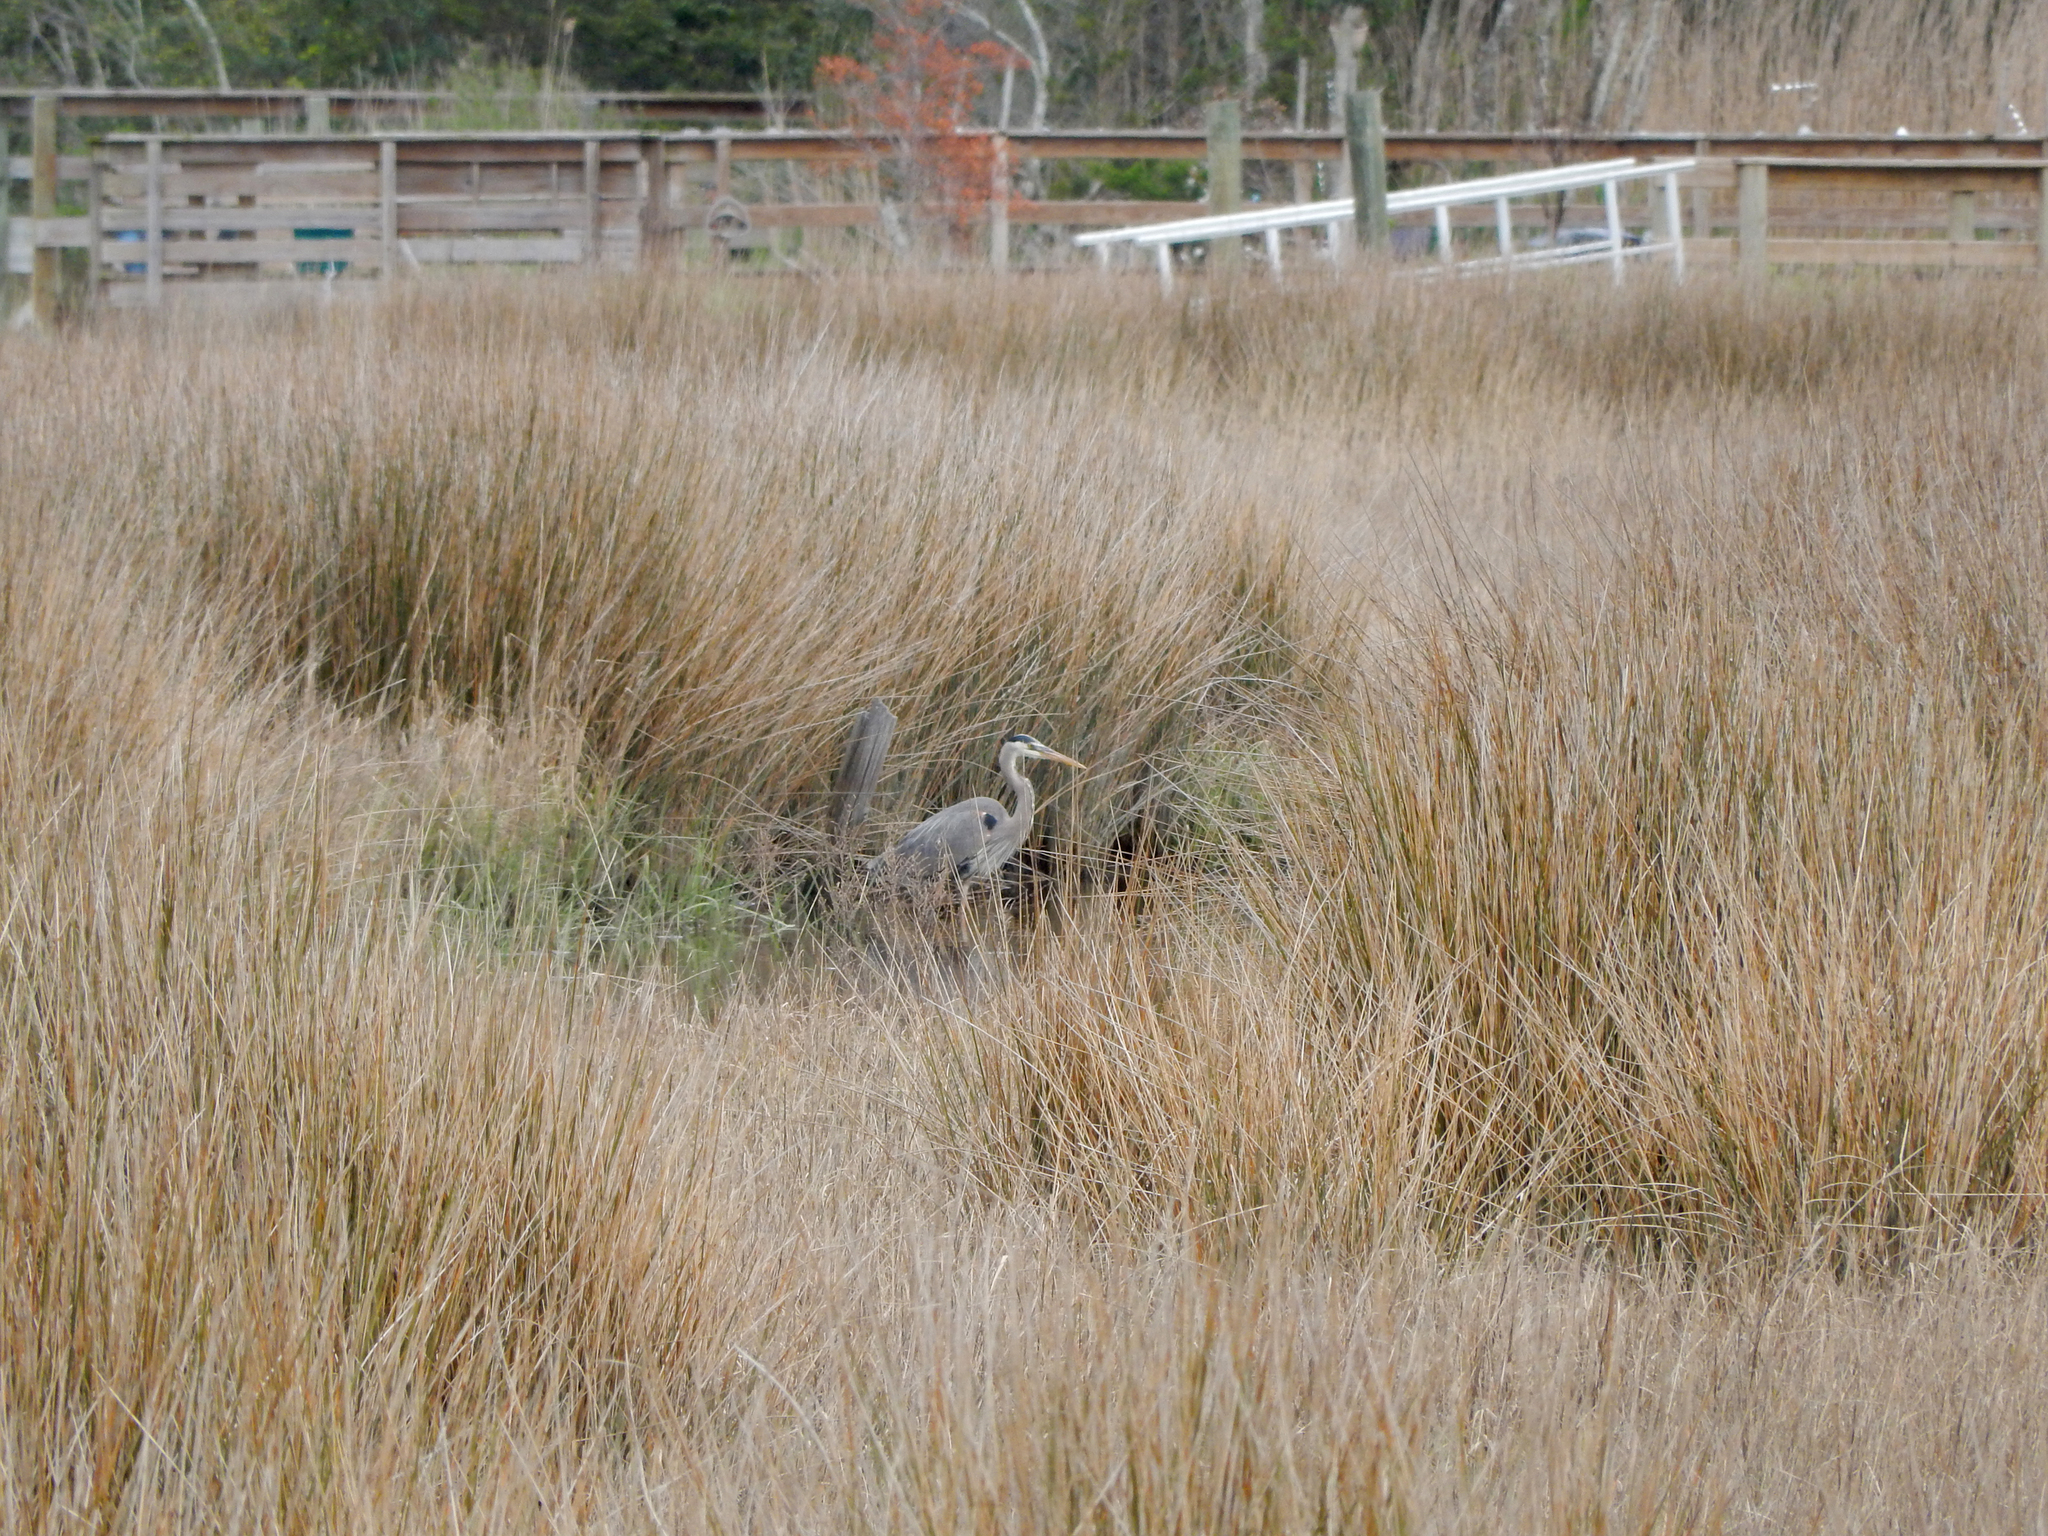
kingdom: Animalia
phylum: Chordata
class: Aves
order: Pelecaniformes
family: Ardeidae
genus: Ardea
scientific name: Ardea herodias
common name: Great blue heron
